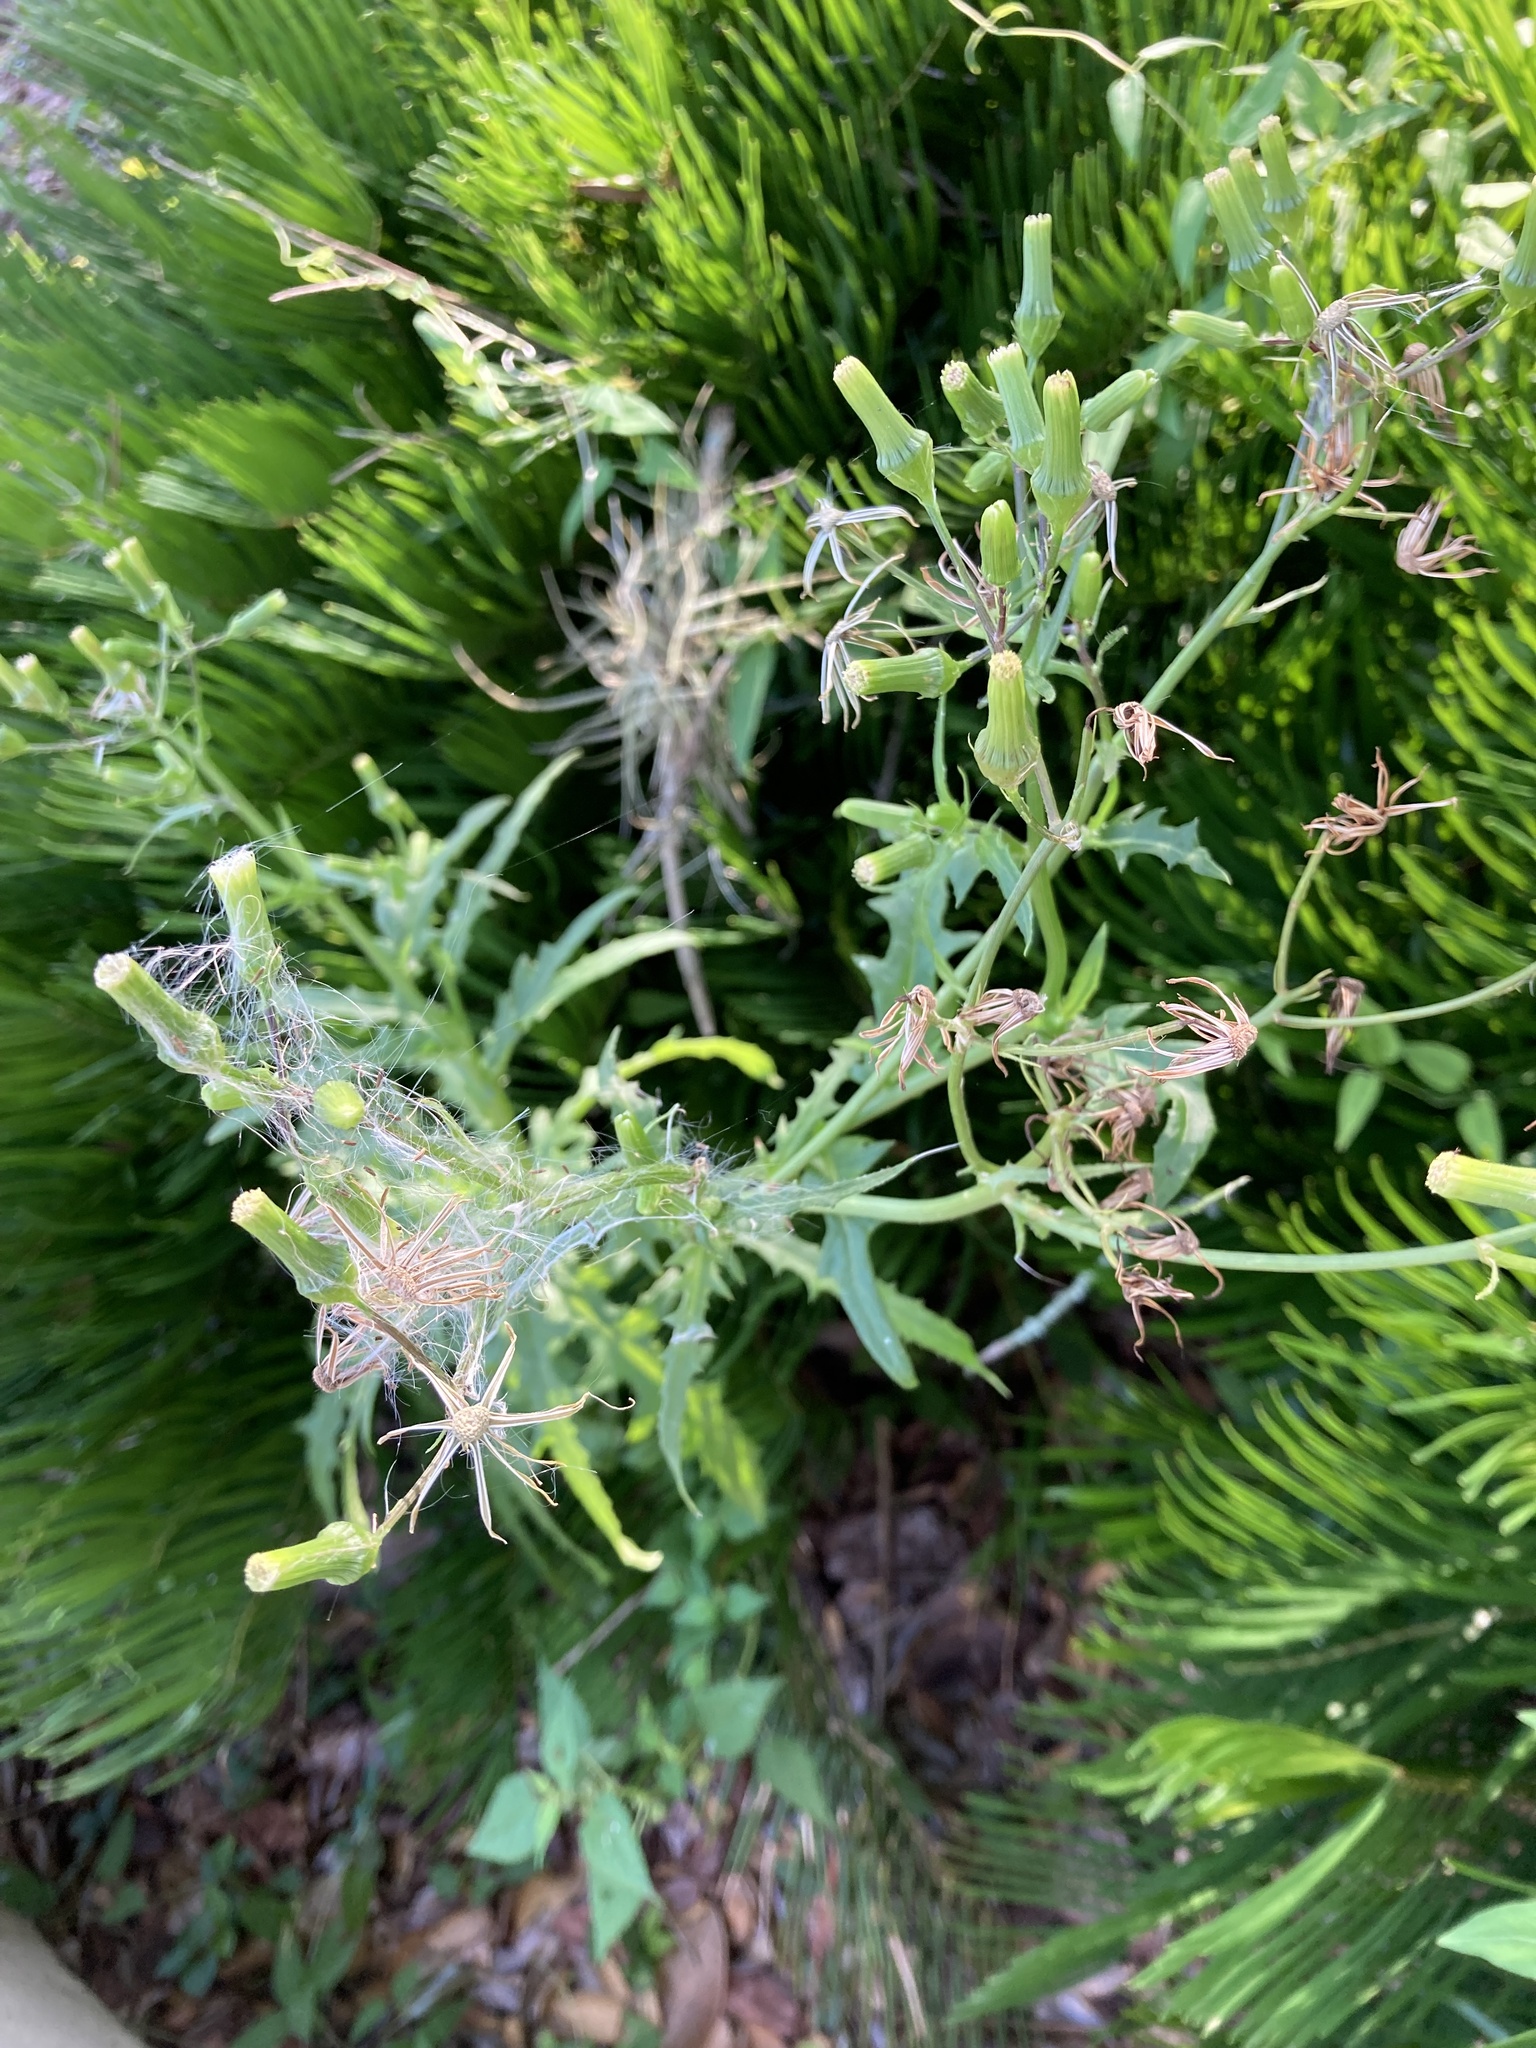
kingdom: Plantae
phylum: Tracheophyta
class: Magnoliopsida
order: Asterales
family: Asteraceae
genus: Erechtites
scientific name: Erechtites hieraciifolius
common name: American burnweed
